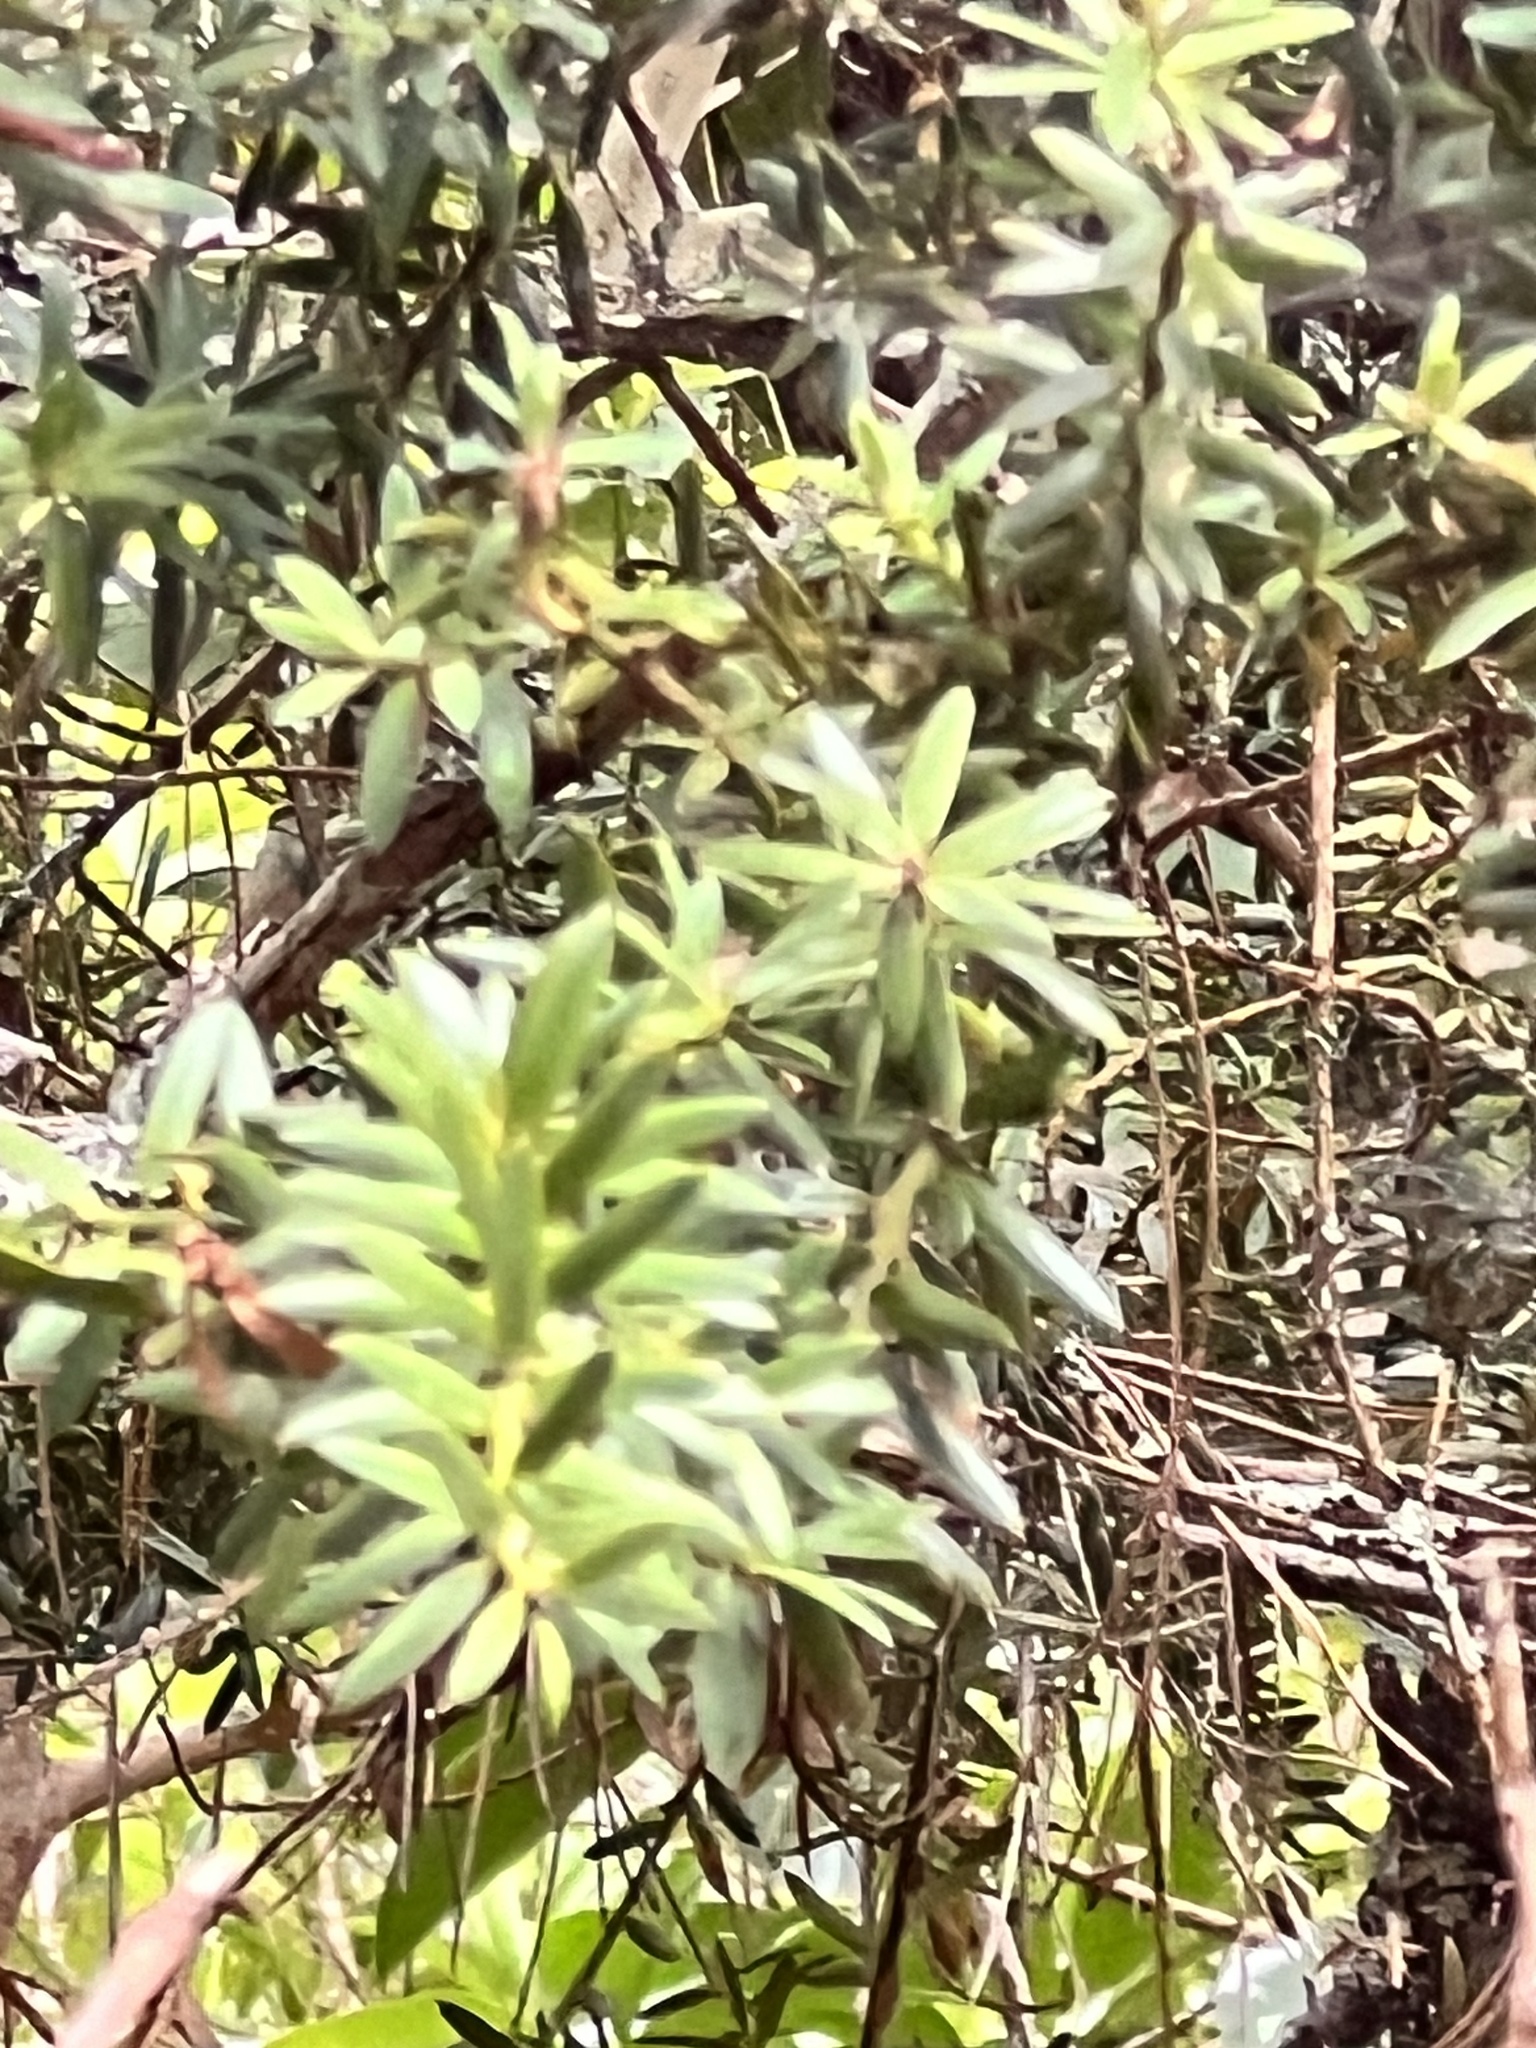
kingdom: Plantae
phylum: Tracheophyta
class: Pinopsida
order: Pinales
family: Podocarpaceae
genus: Podocarpus
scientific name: Podocarpus totara
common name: Totara
